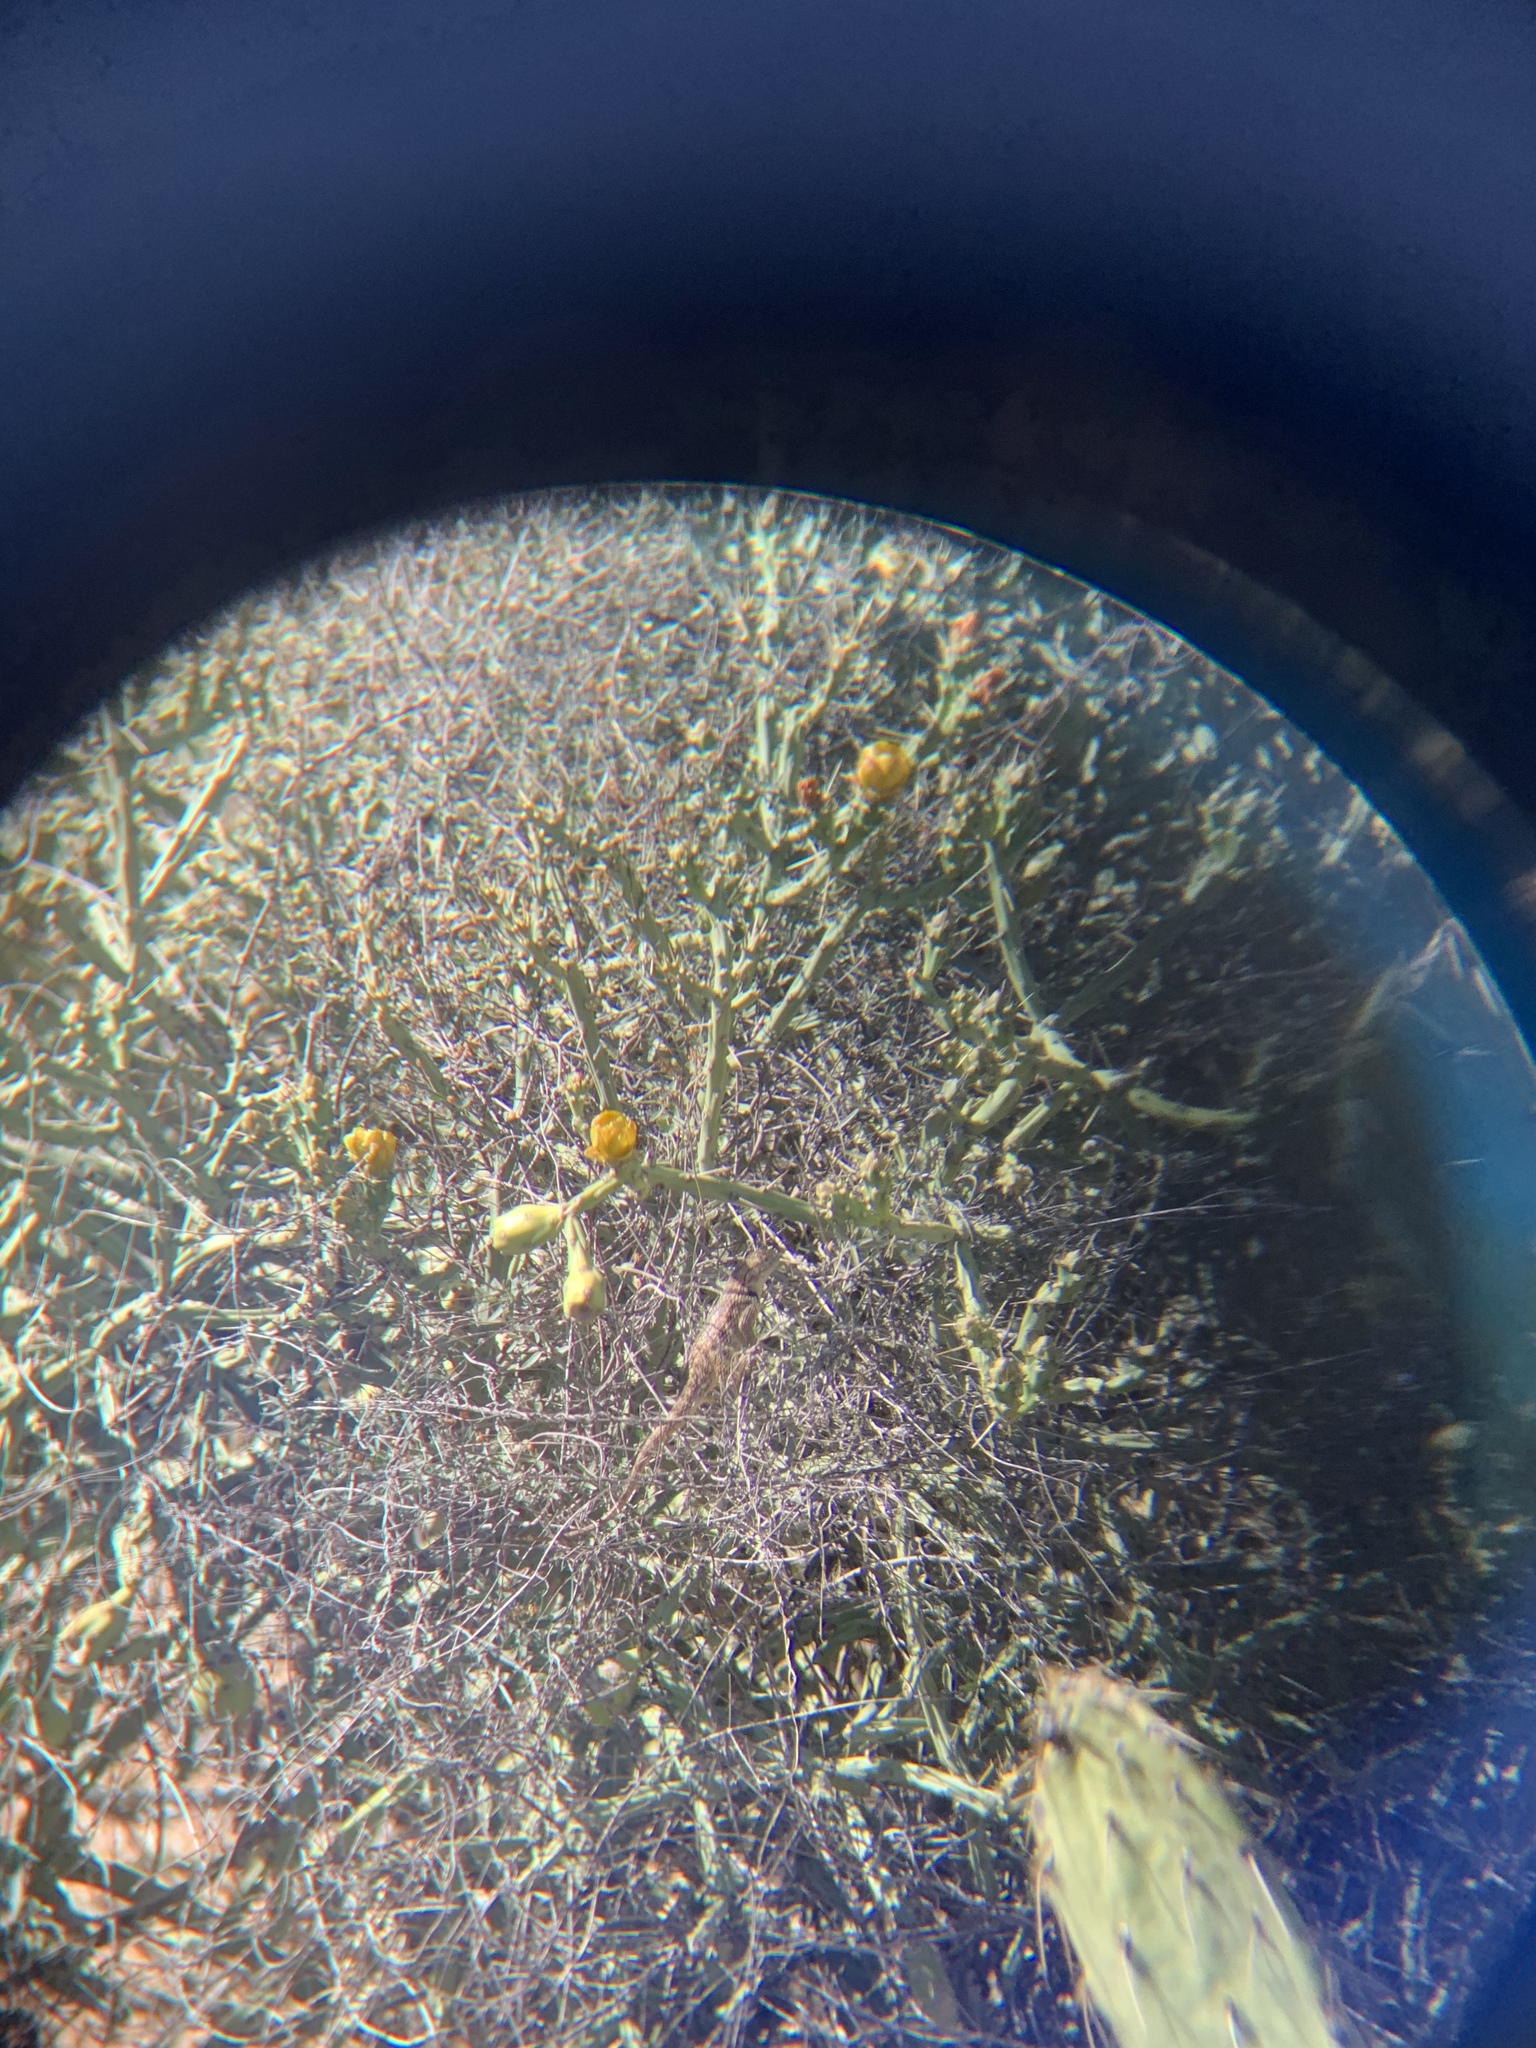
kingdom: Animalia
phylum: Chordata
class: Squamata
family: Phrynosomatidae
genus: Sceloporus
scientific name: Sceloporus magister
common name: Desert spiny lizard
